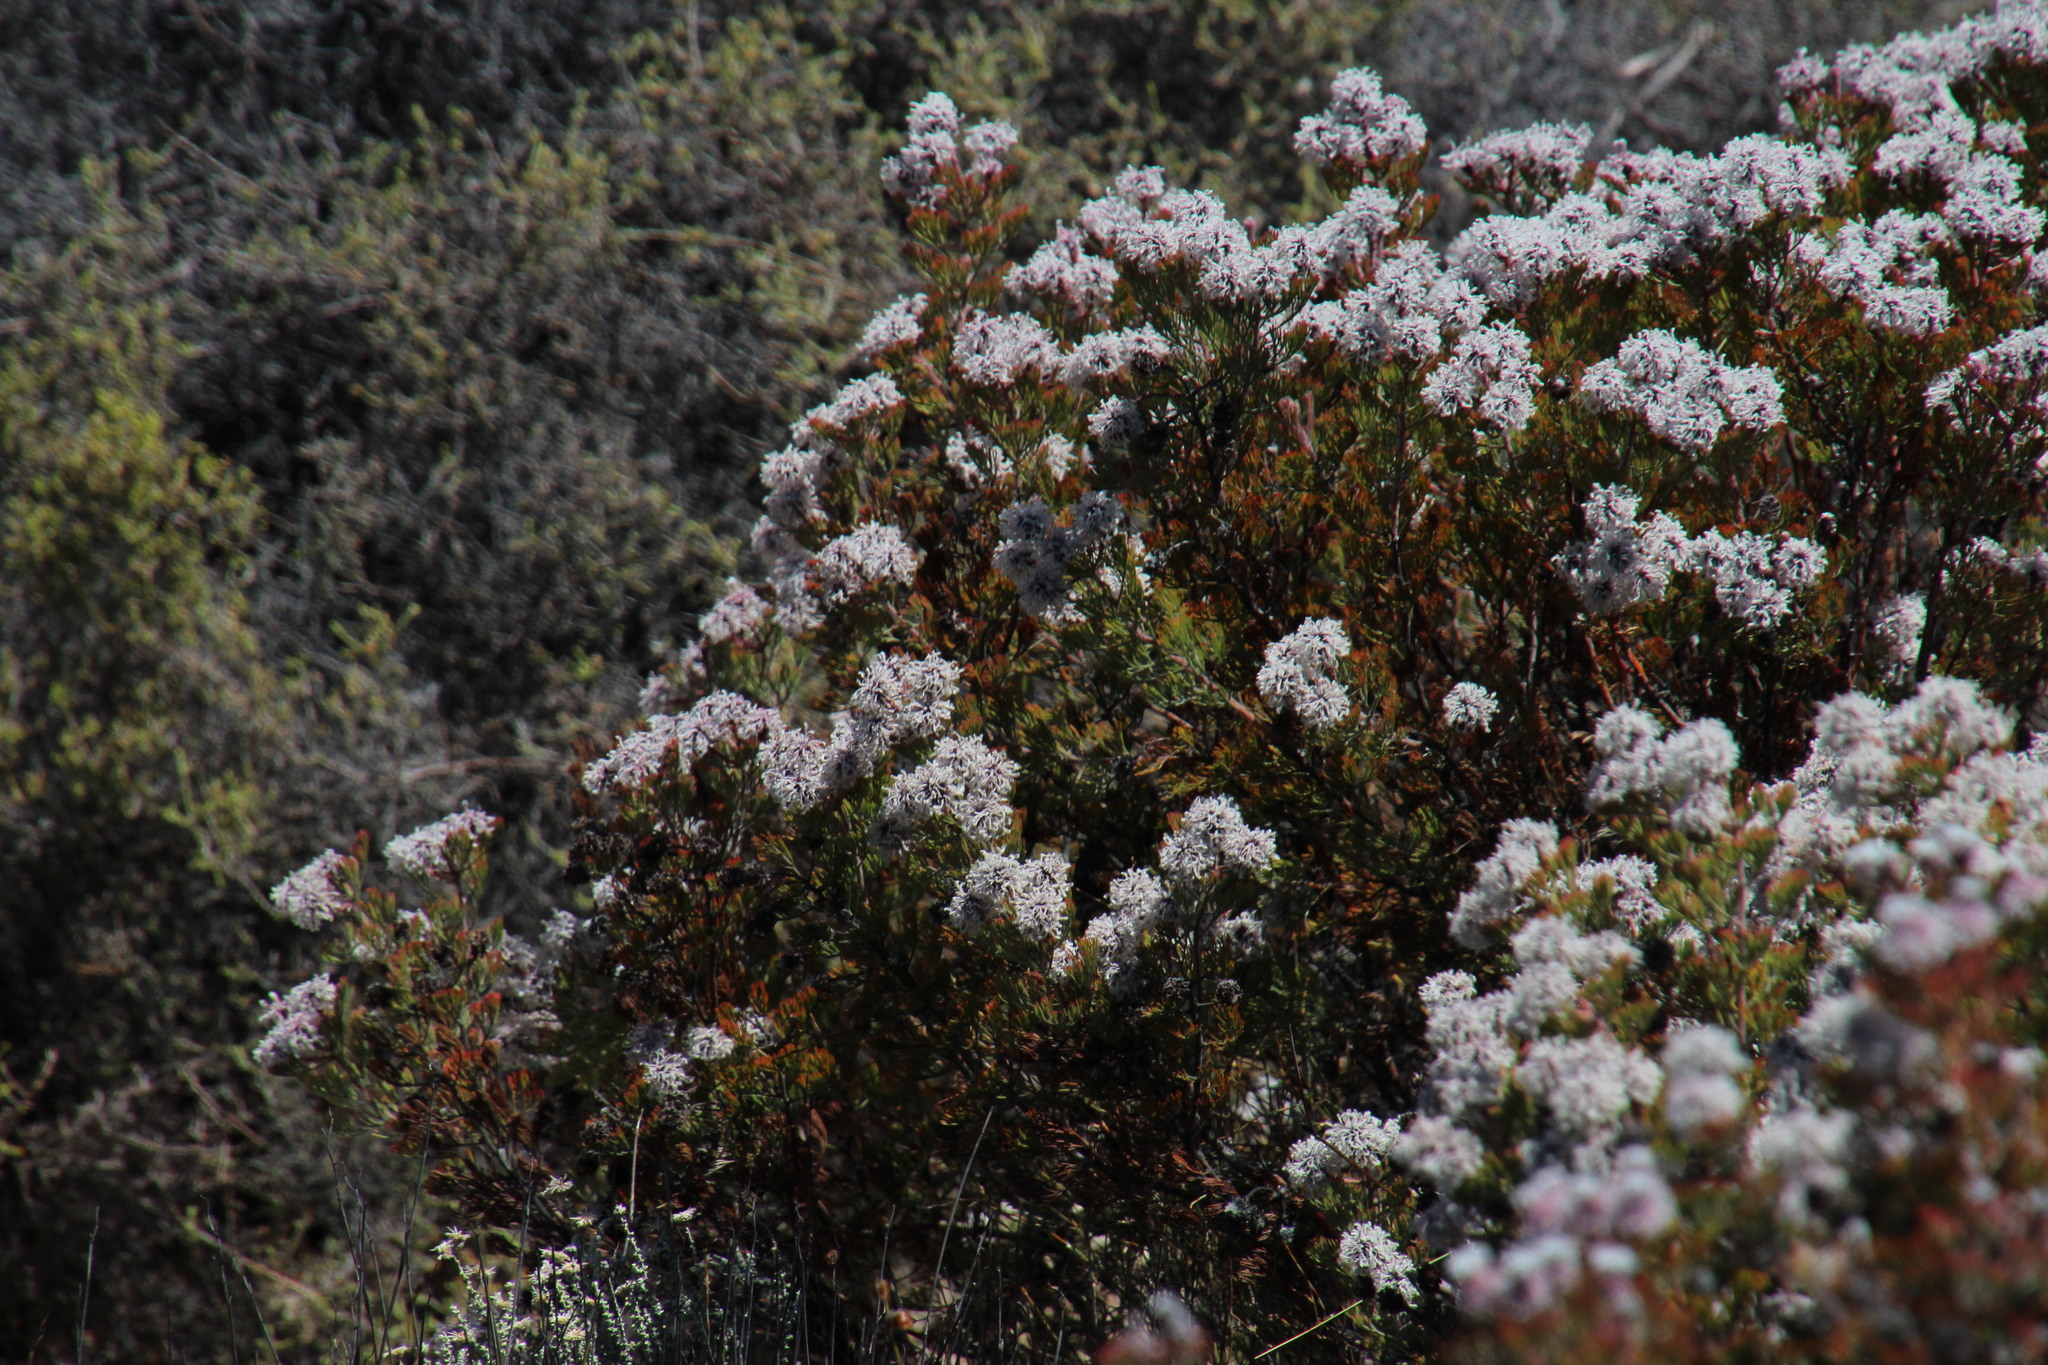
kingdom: Plantae
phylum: Tracheophyta
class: Magnoliopsida
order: Proteales
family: Proteaceae
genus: Serruria
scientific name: Serruria aitonii
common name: Marshmallow spiderhead
